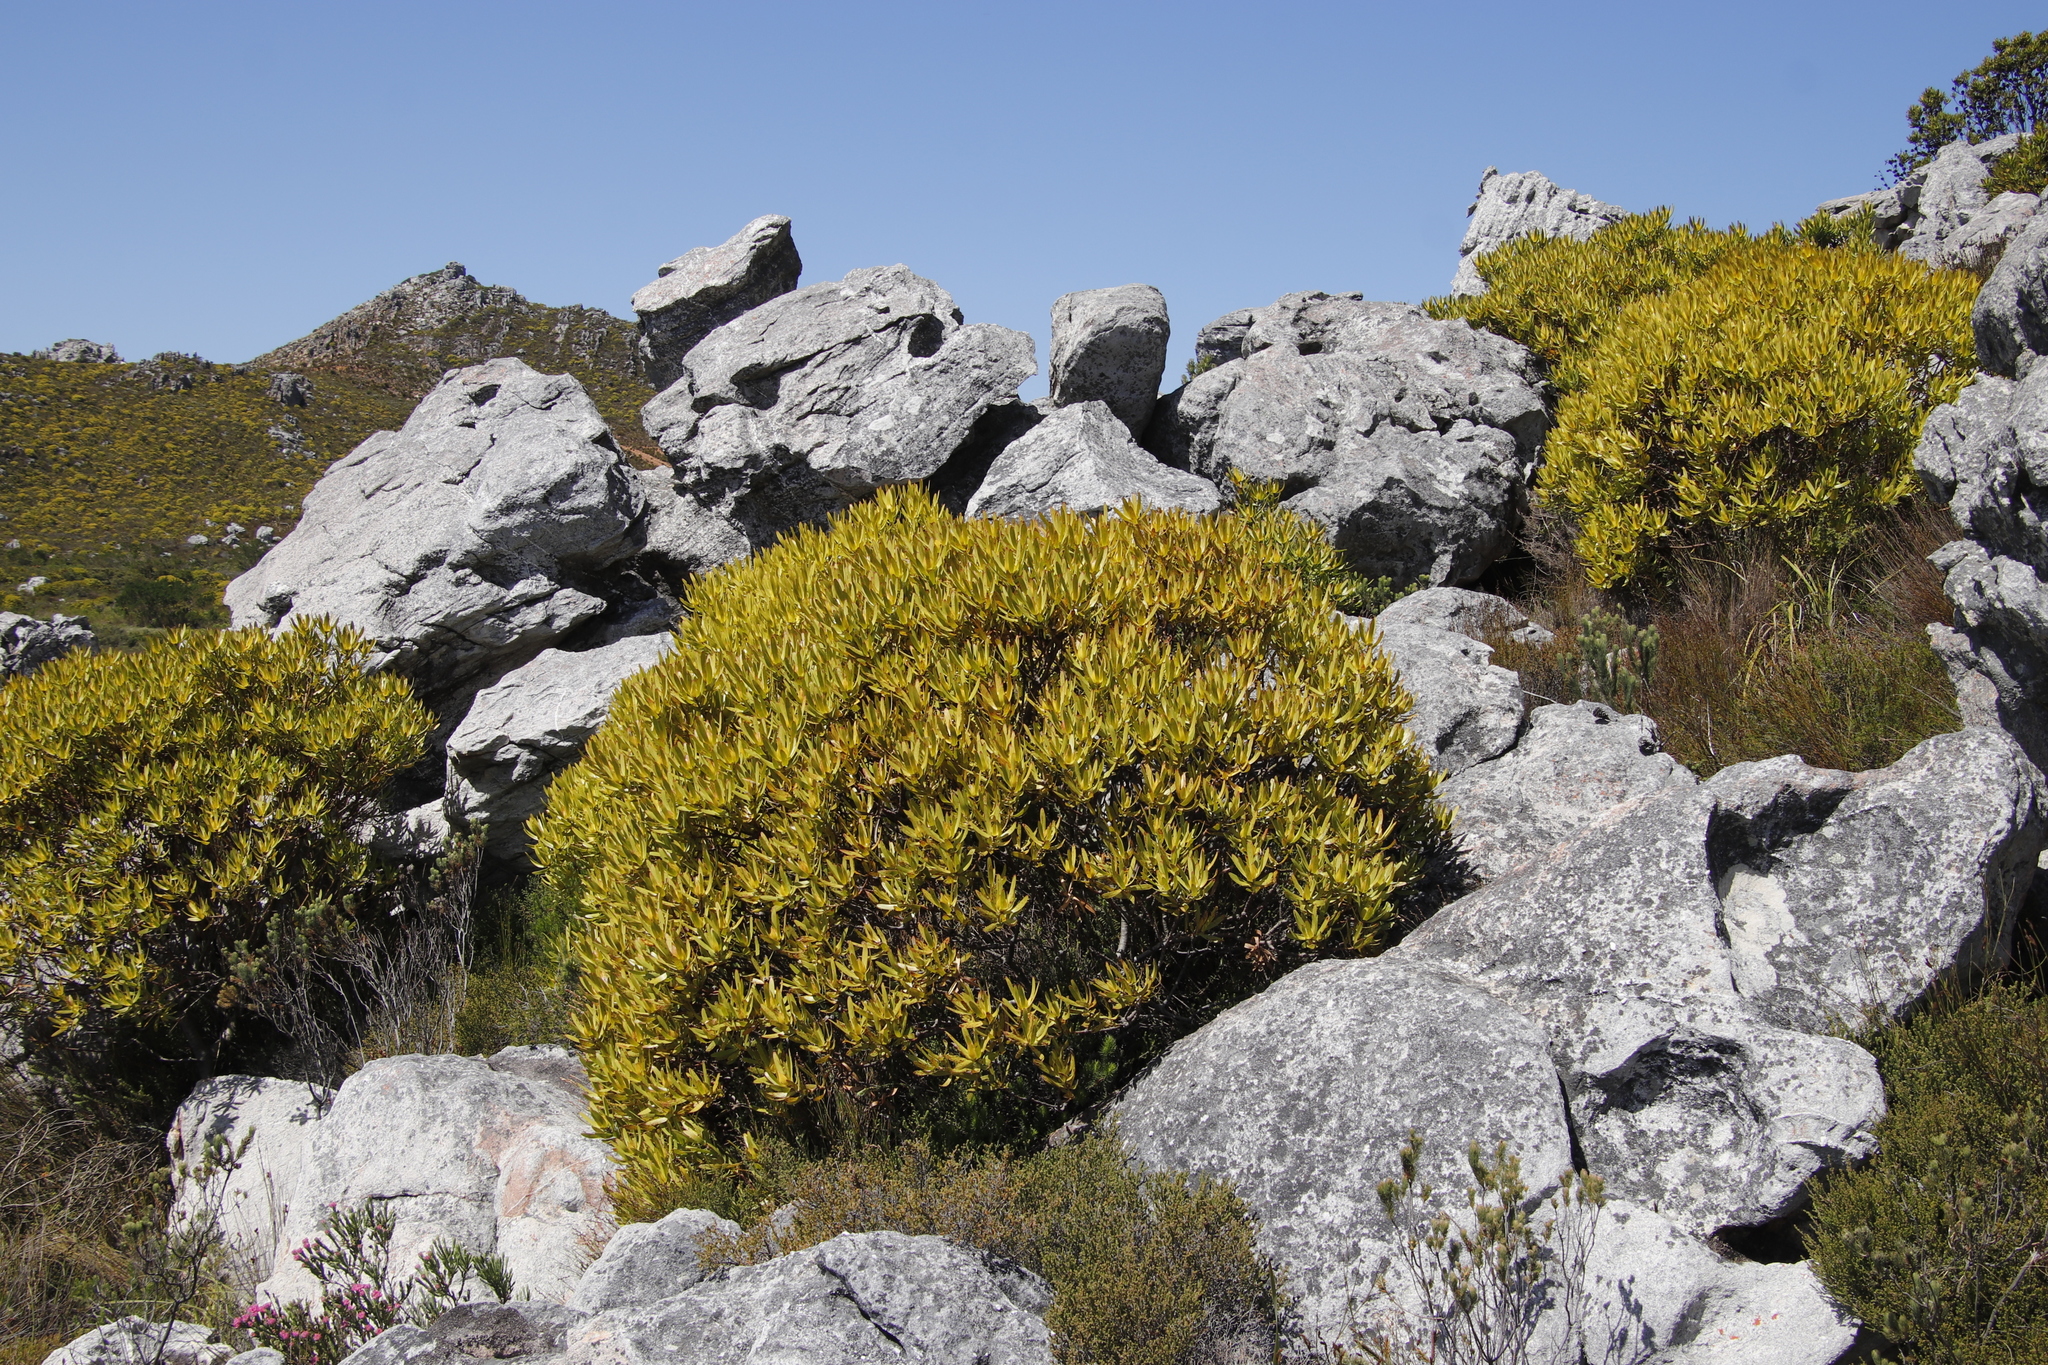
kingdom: Plantae
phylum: Tracheophyta
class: Magnoliopsida
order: Proteales
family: Proteaceae
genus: Leucadendron
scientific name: Leucadendron laureolum
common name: Golden sunshinebush
